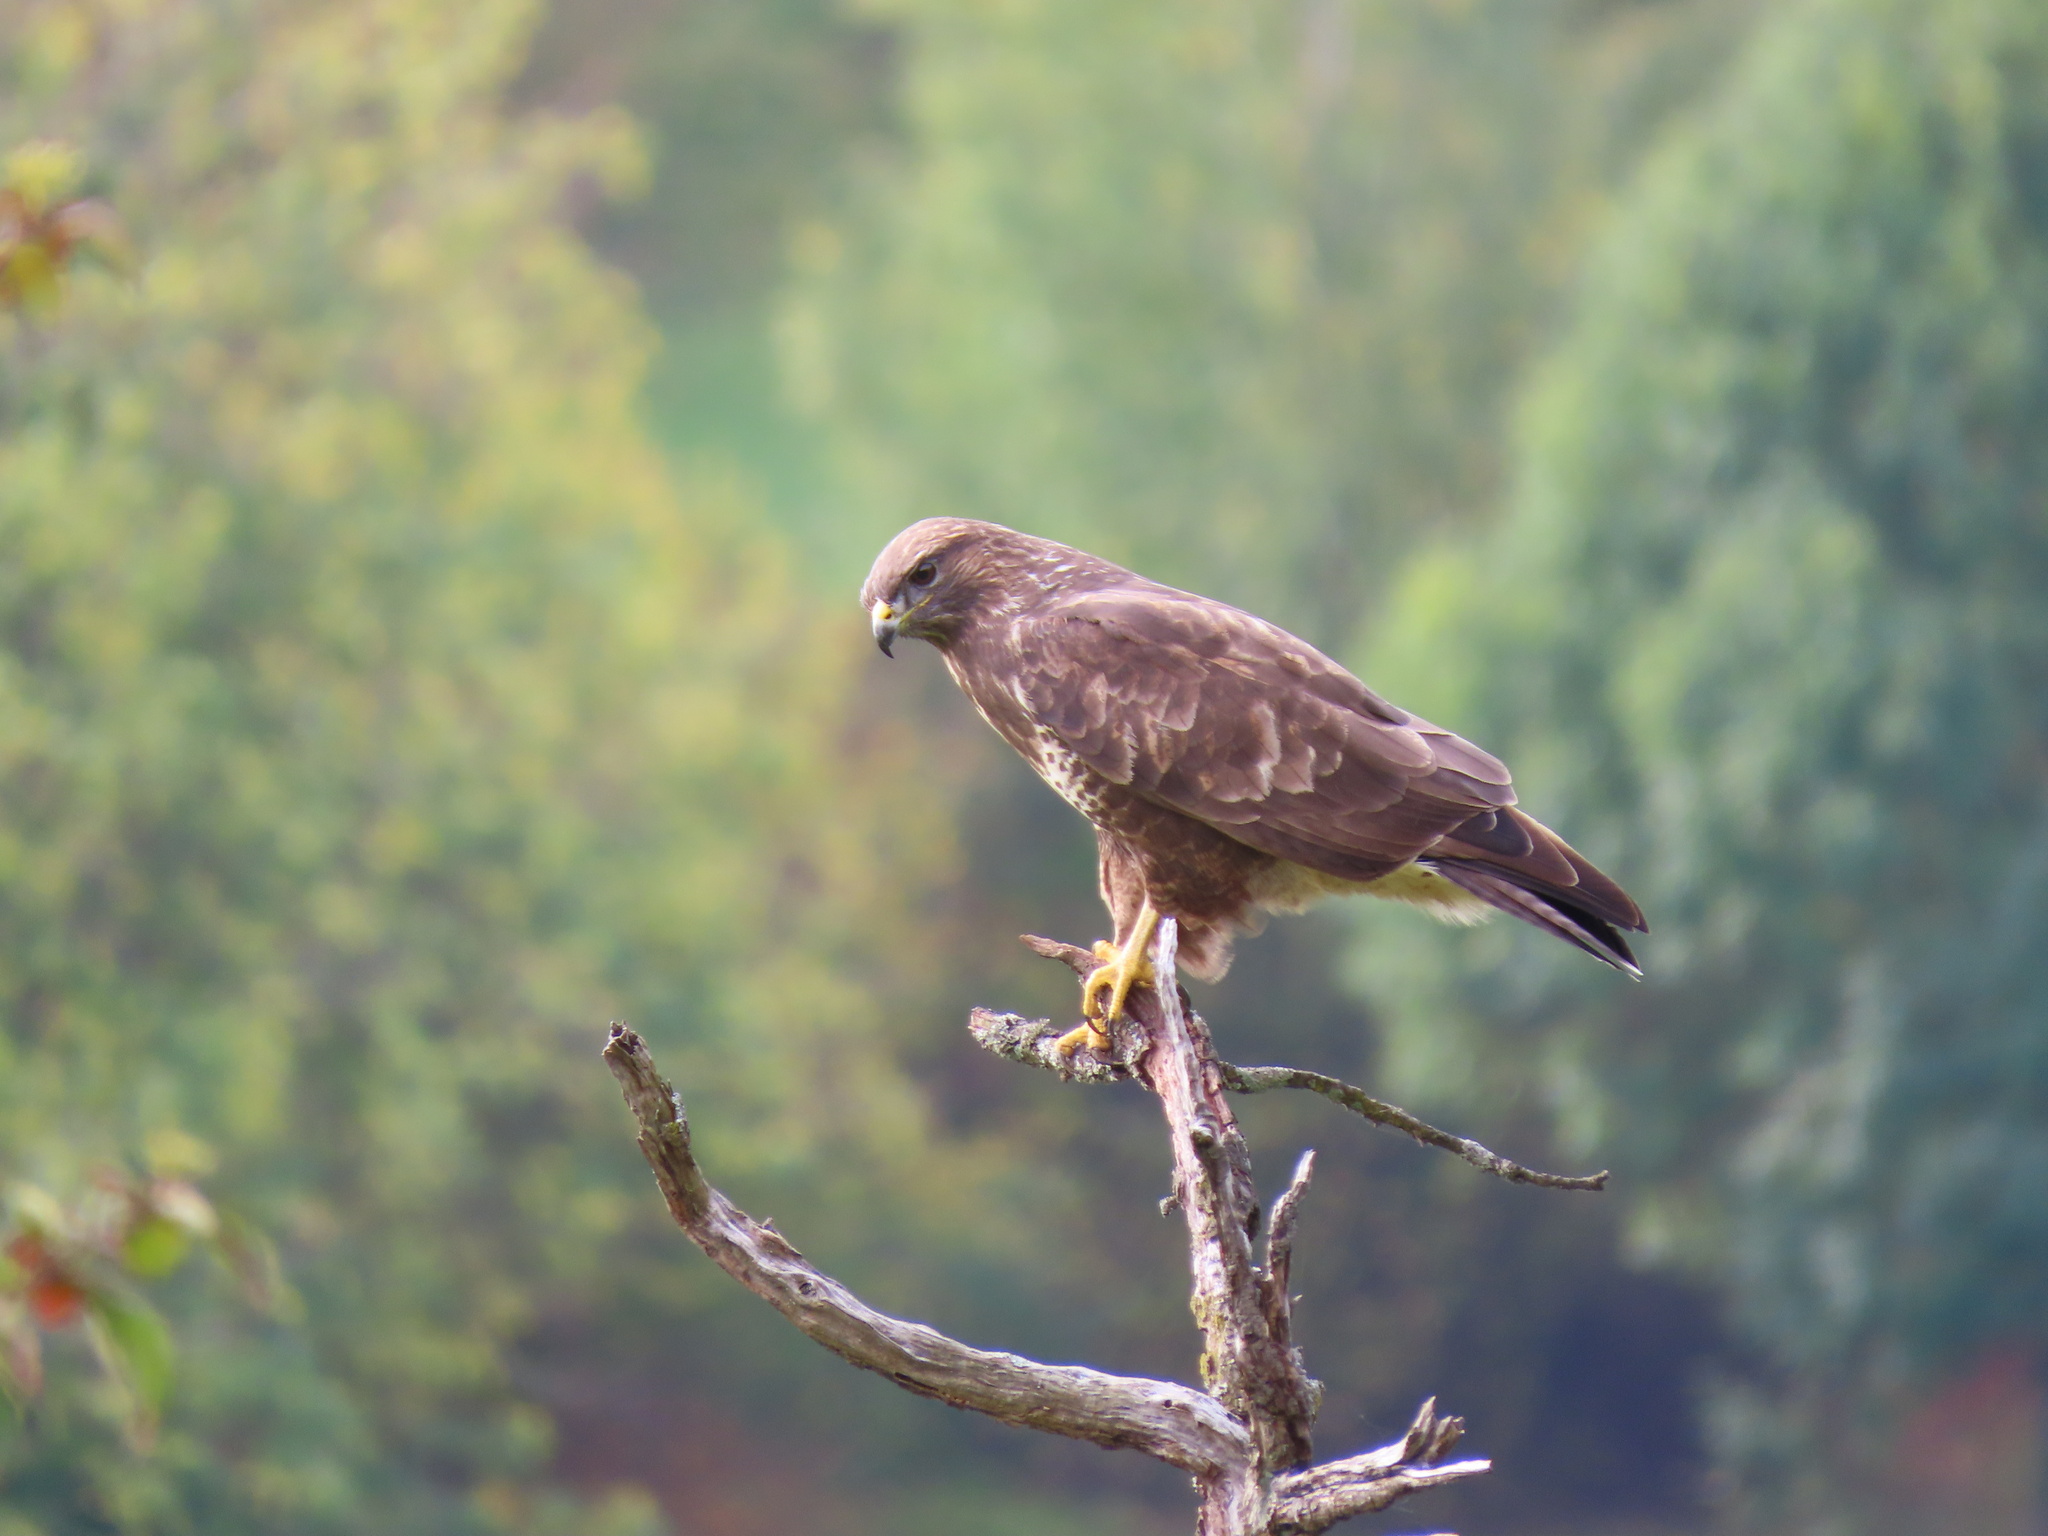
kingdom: Animalia
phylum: Chordata
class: Aves
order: Accipitriformes
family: Accipitridae
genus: Buteo
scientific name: Buteo buteo
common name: Common buzzard
